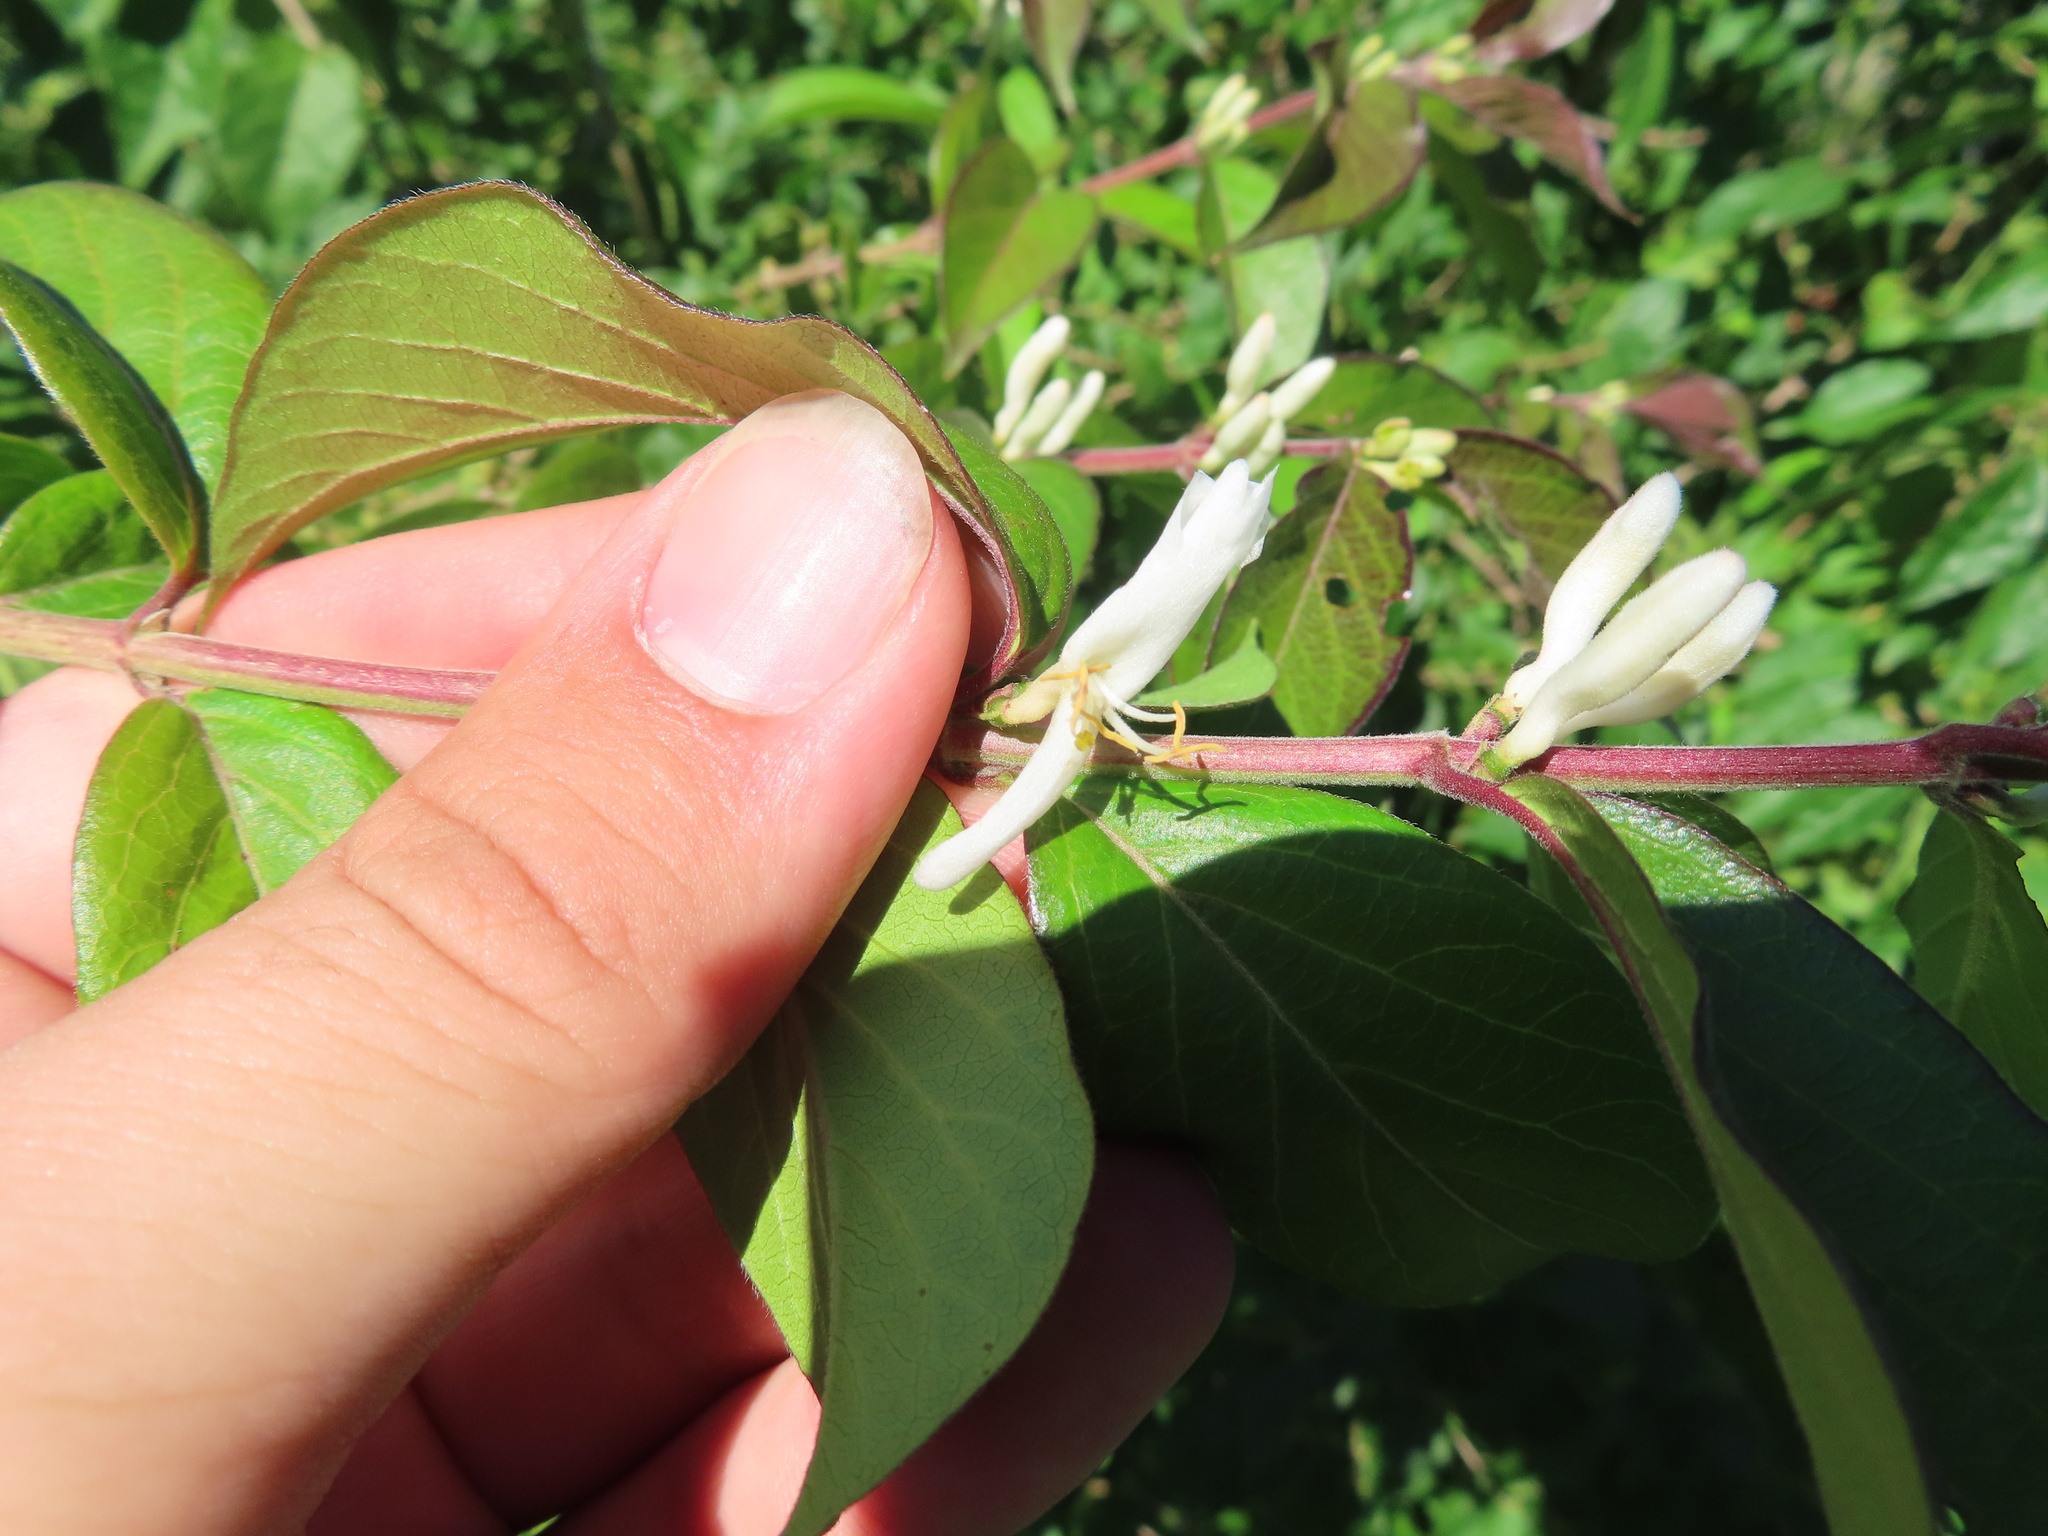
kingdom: Plantae
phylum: Tracheophyta
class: Magnoliopsida
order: Dipsacales
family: Caprifoliaceae
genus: Lonicera
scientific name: Lonicera maackii
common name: Amur honeysuckle
